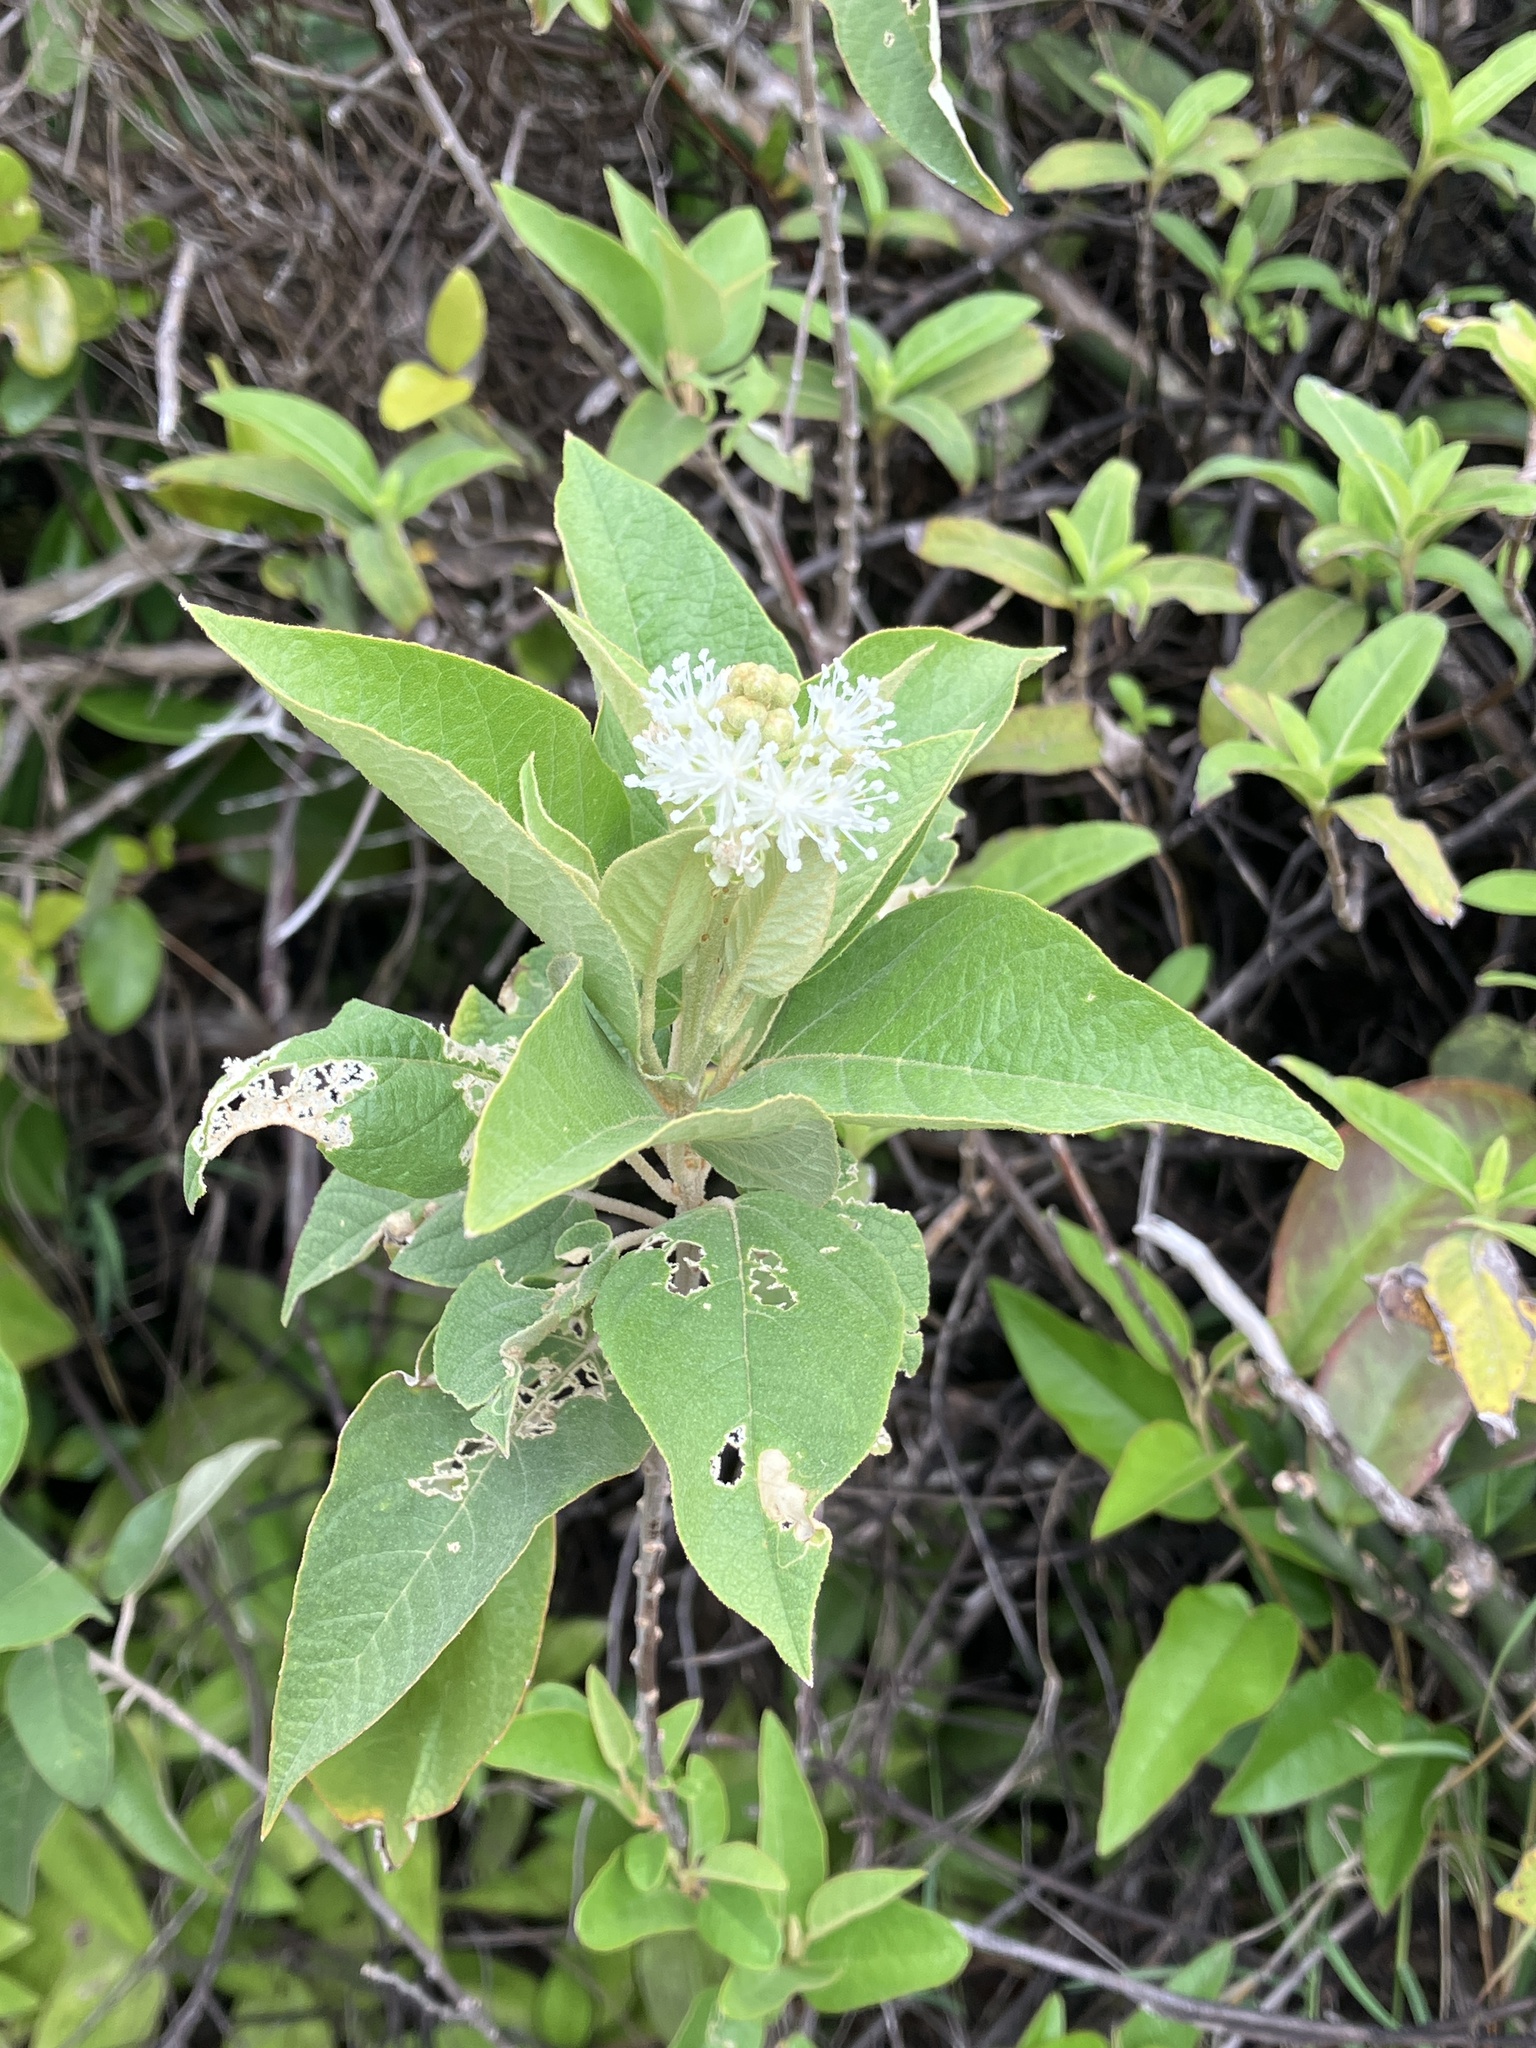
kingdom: Plantae
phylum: Tracheophyta
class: Magnoliopsida
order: Malpighiales
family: Euphorbiaceae
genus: Croton
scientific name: Croton astroites
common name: Wild marrow
